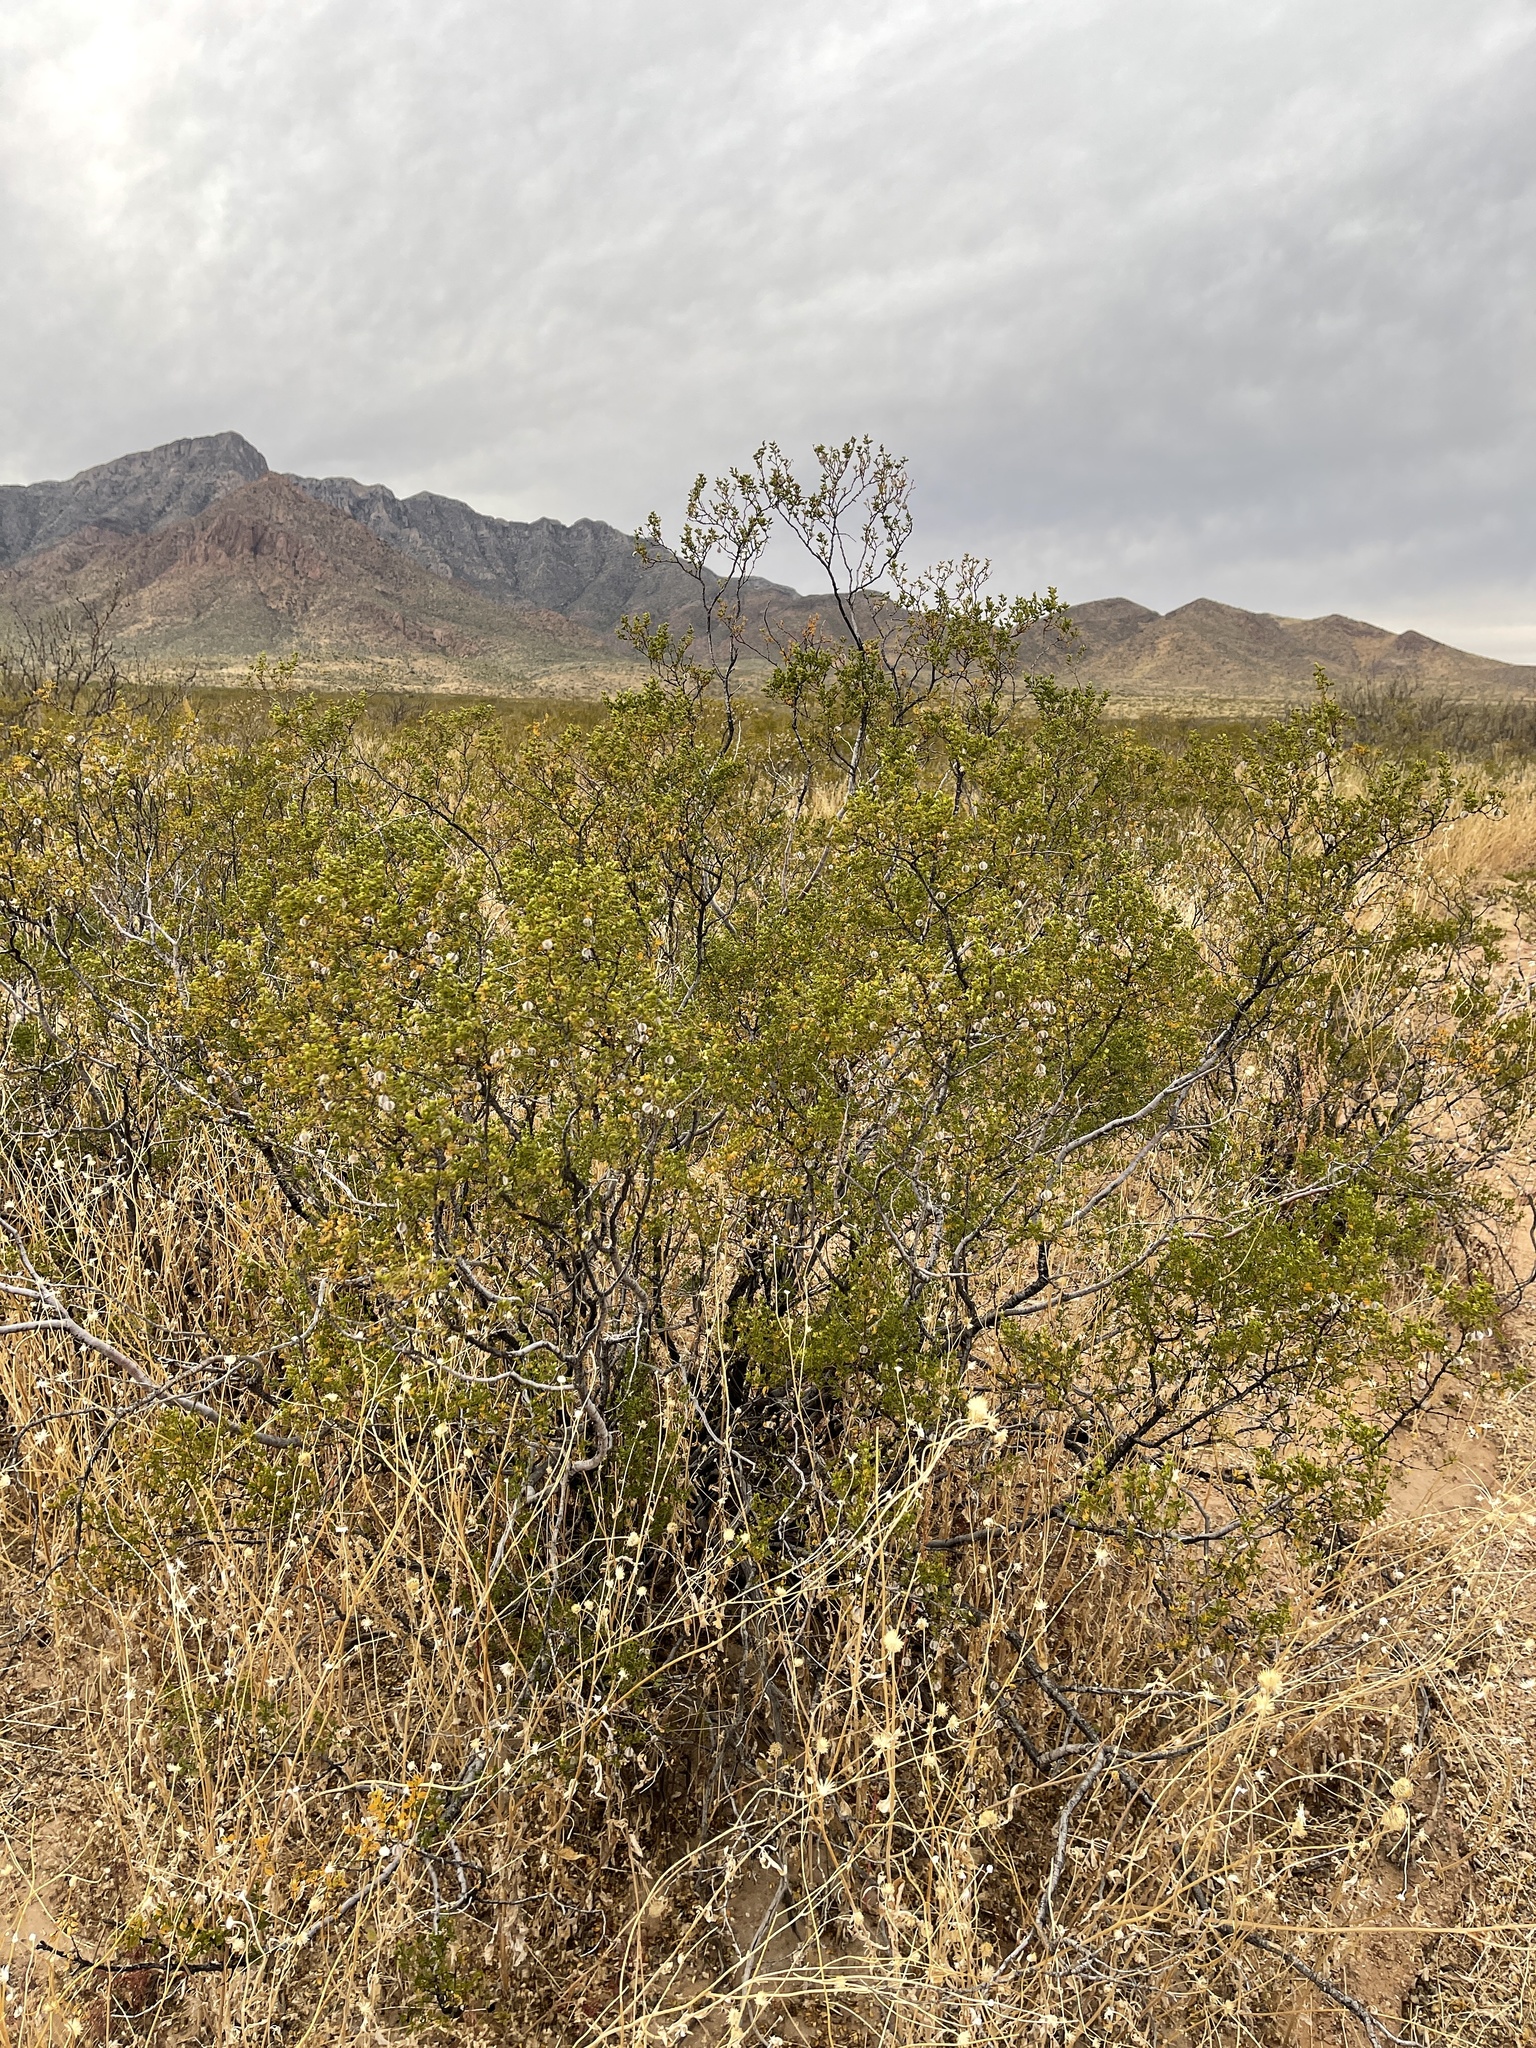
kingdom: Plantae
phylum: Tracheophyta
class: Magnoliopsida
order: Zygophyllales
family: Zygophyllaceae
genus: Larrea
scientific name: Larrea tridentata
